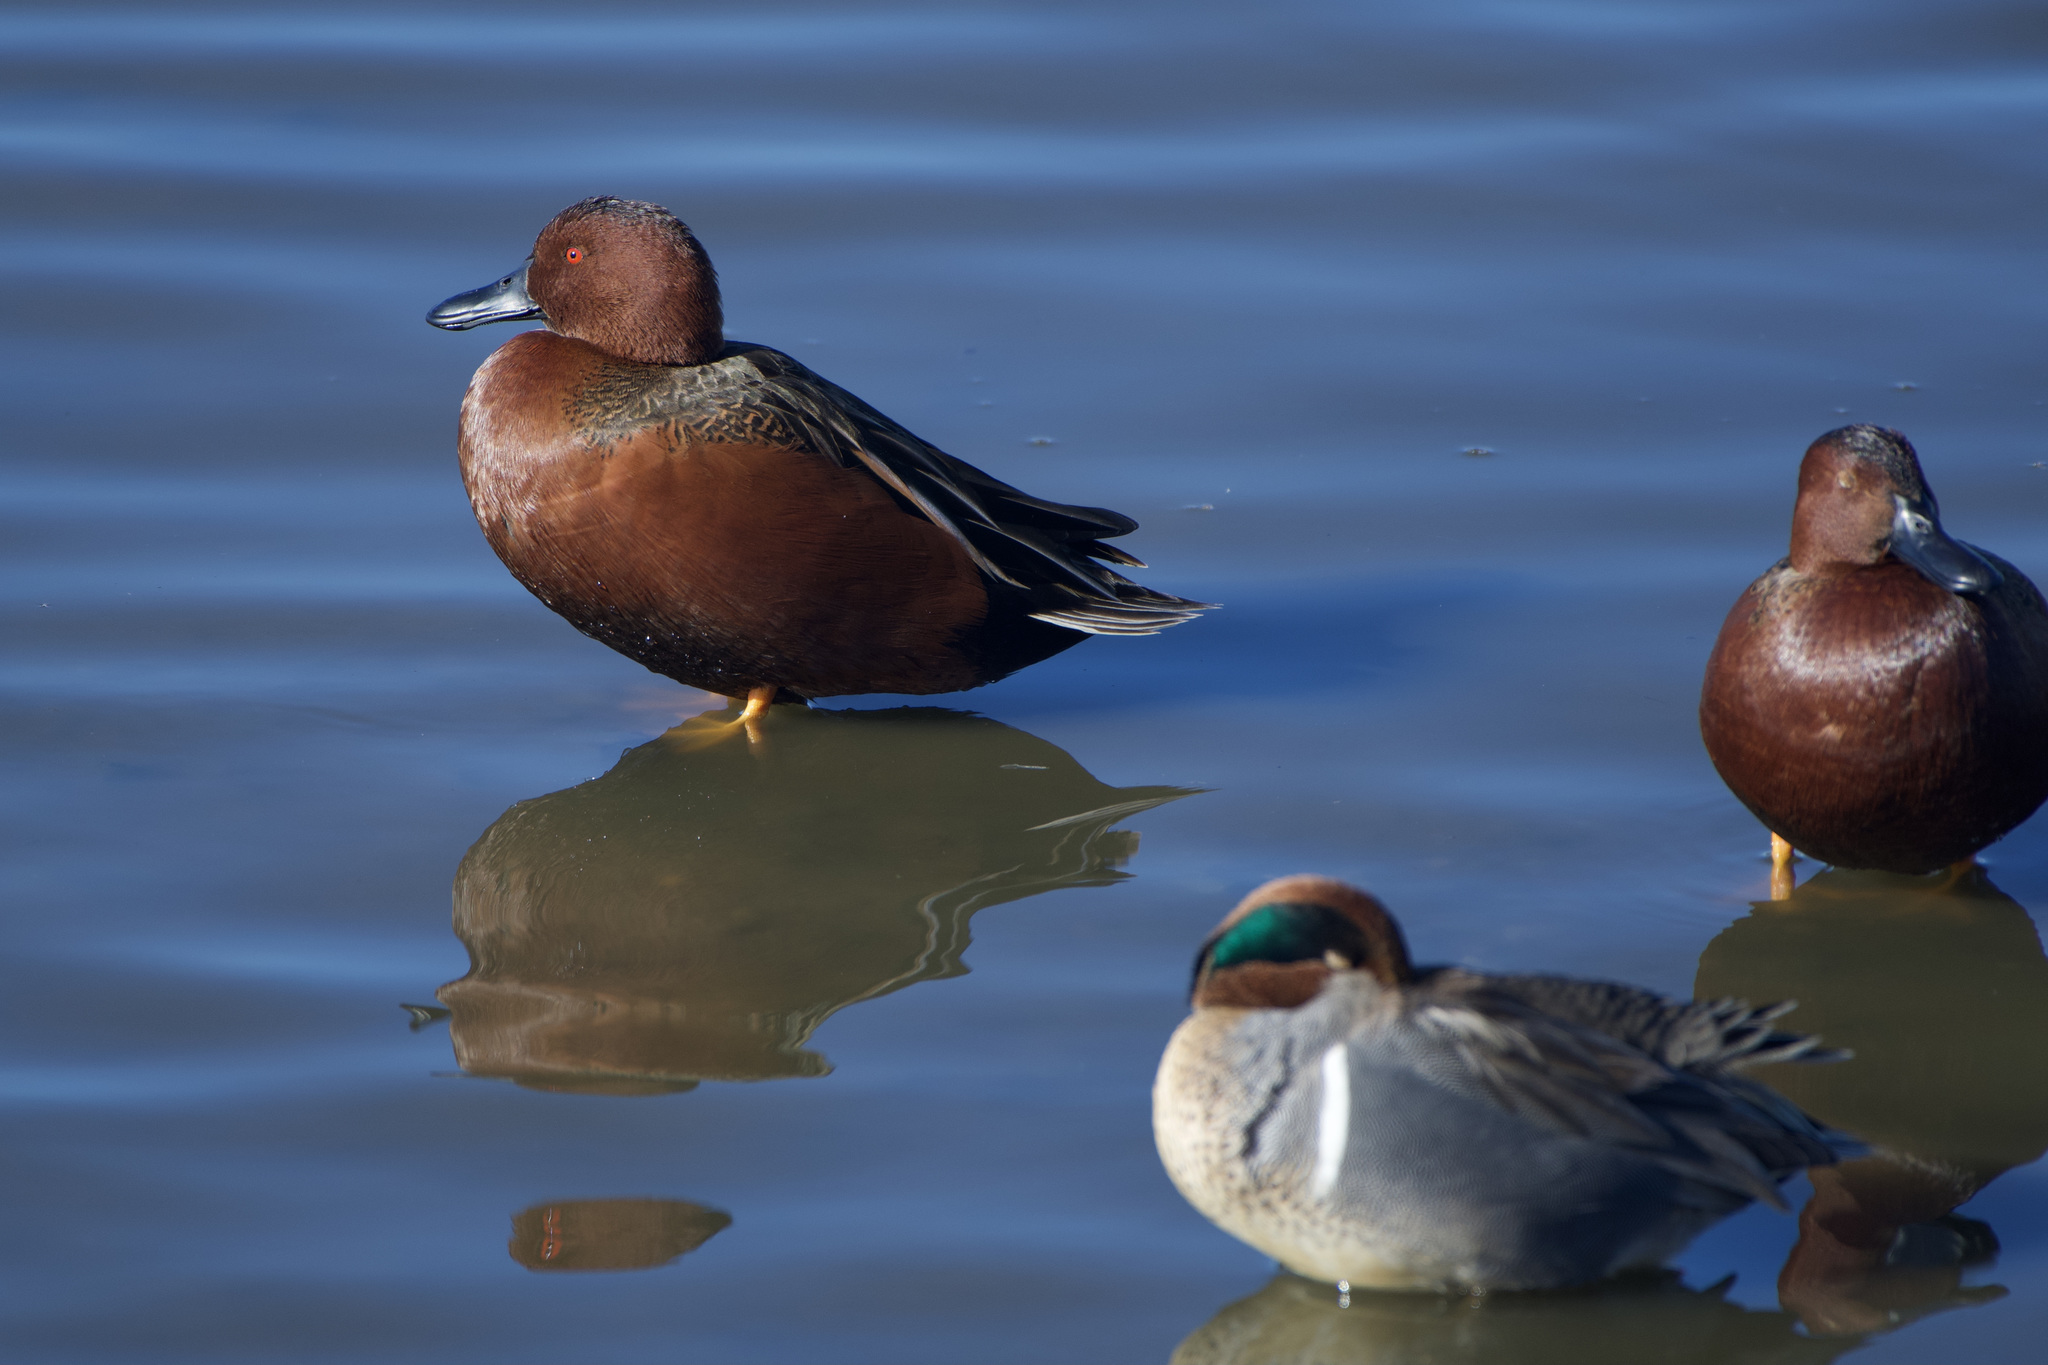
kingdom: Animalia
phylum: Chordata
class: Aves
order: Anseriformes
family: Anatidae
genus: Spatula
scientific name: Spatula cyanoptera
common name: Cinnamon teal
